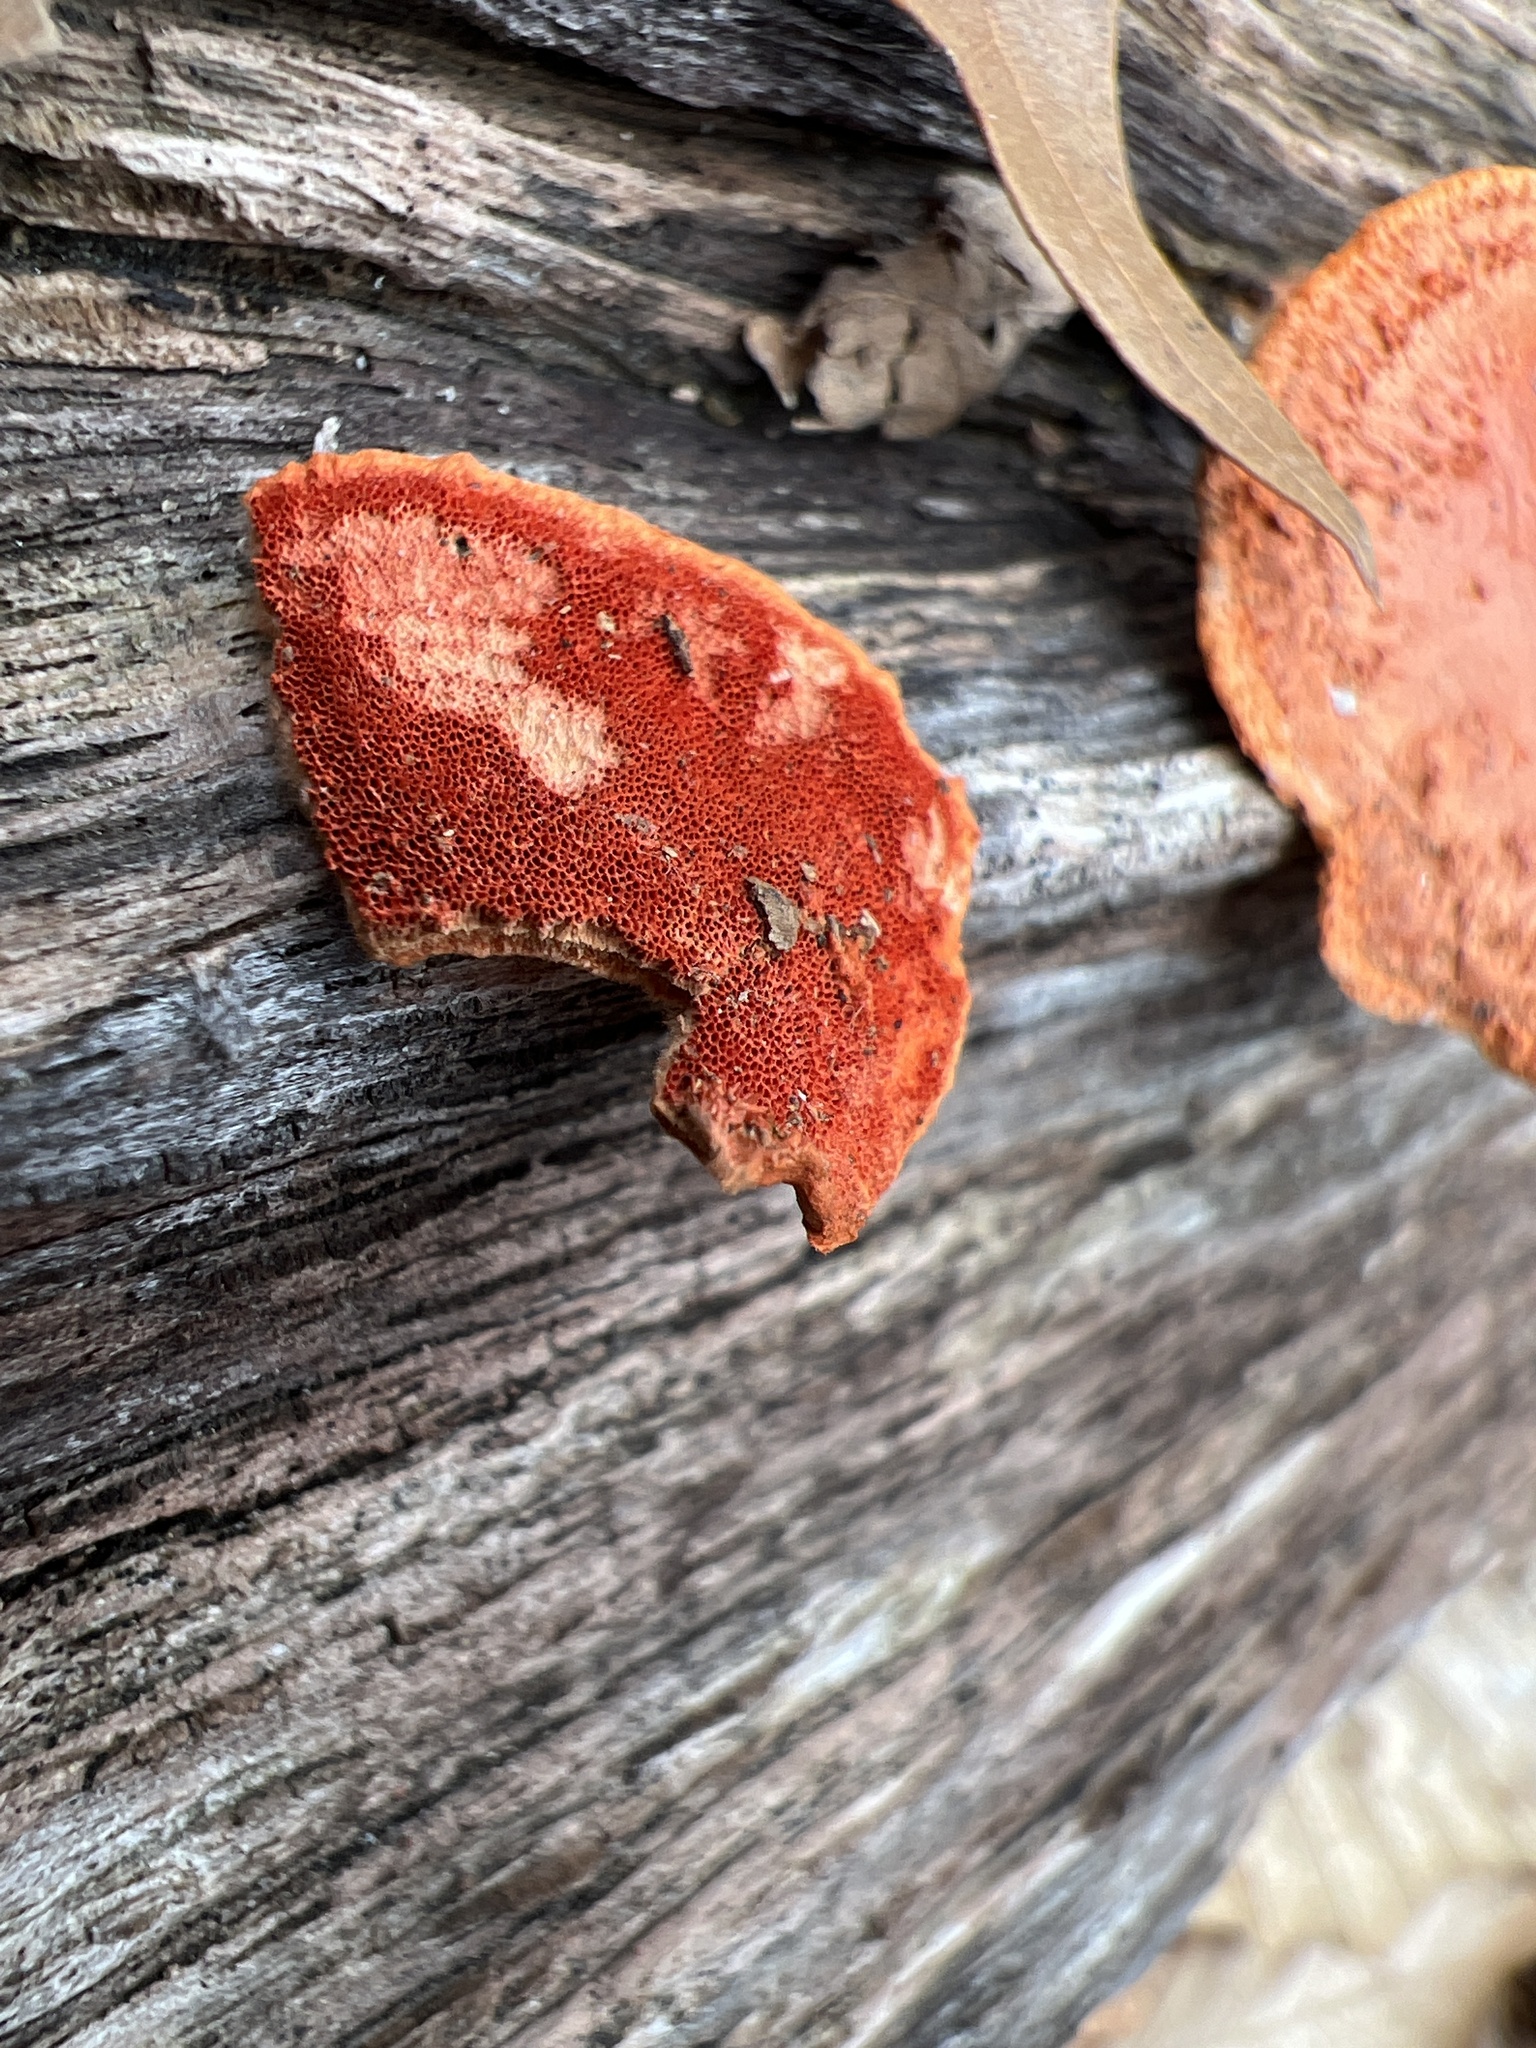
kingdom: Fungi
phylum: Basidiomycota
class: Agaricomycetes
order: Polyporales
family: Polyporaceae
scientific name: Polyporaceae
